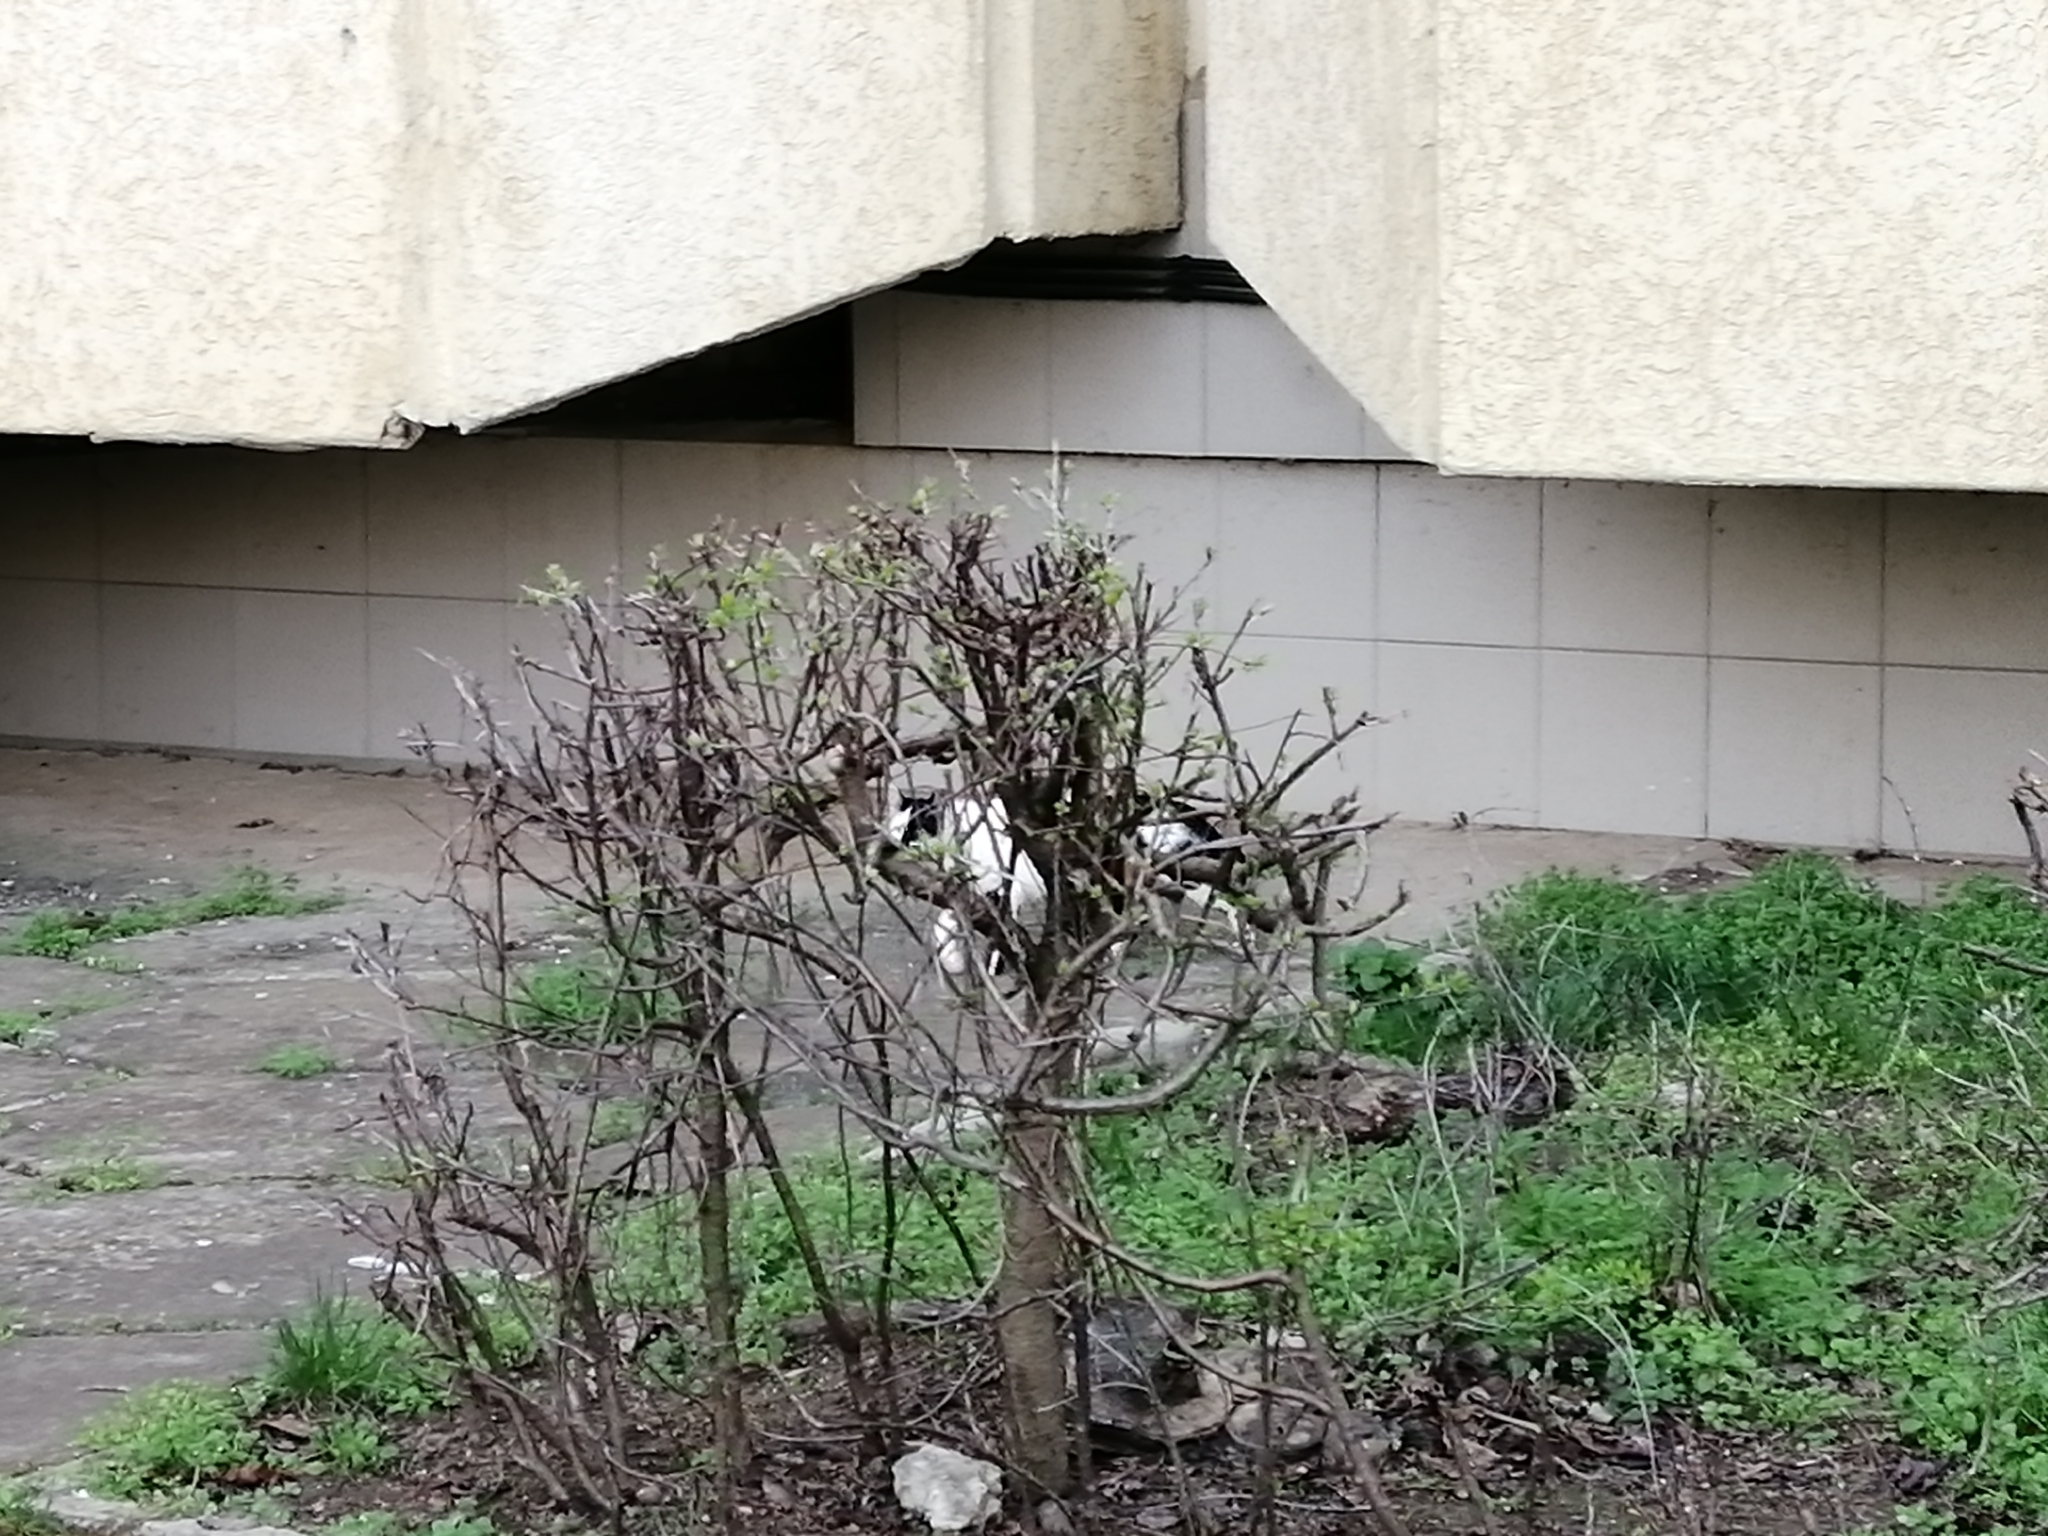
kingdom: Animalia
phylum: Chordata
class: Mammalia
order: Carnivora
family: Felidae
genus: Felis
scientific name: Felis catus
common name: Domestic cat
